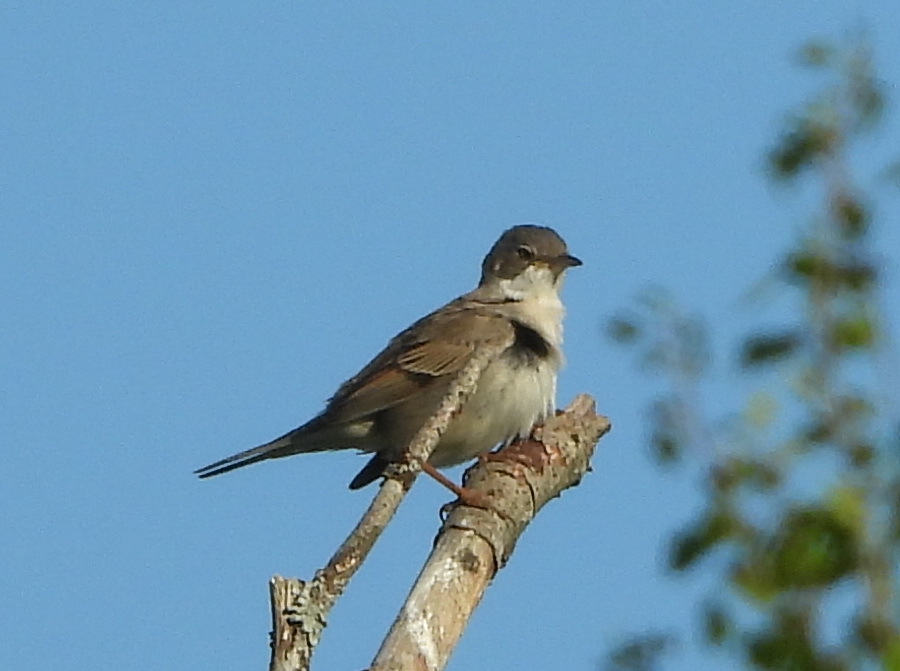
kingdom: Animalia
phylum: Chordata
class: Aves
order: Passeriformes
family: Sylviidae
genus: Sylvia
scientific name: Sylvia communis
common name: Common whitethroat
